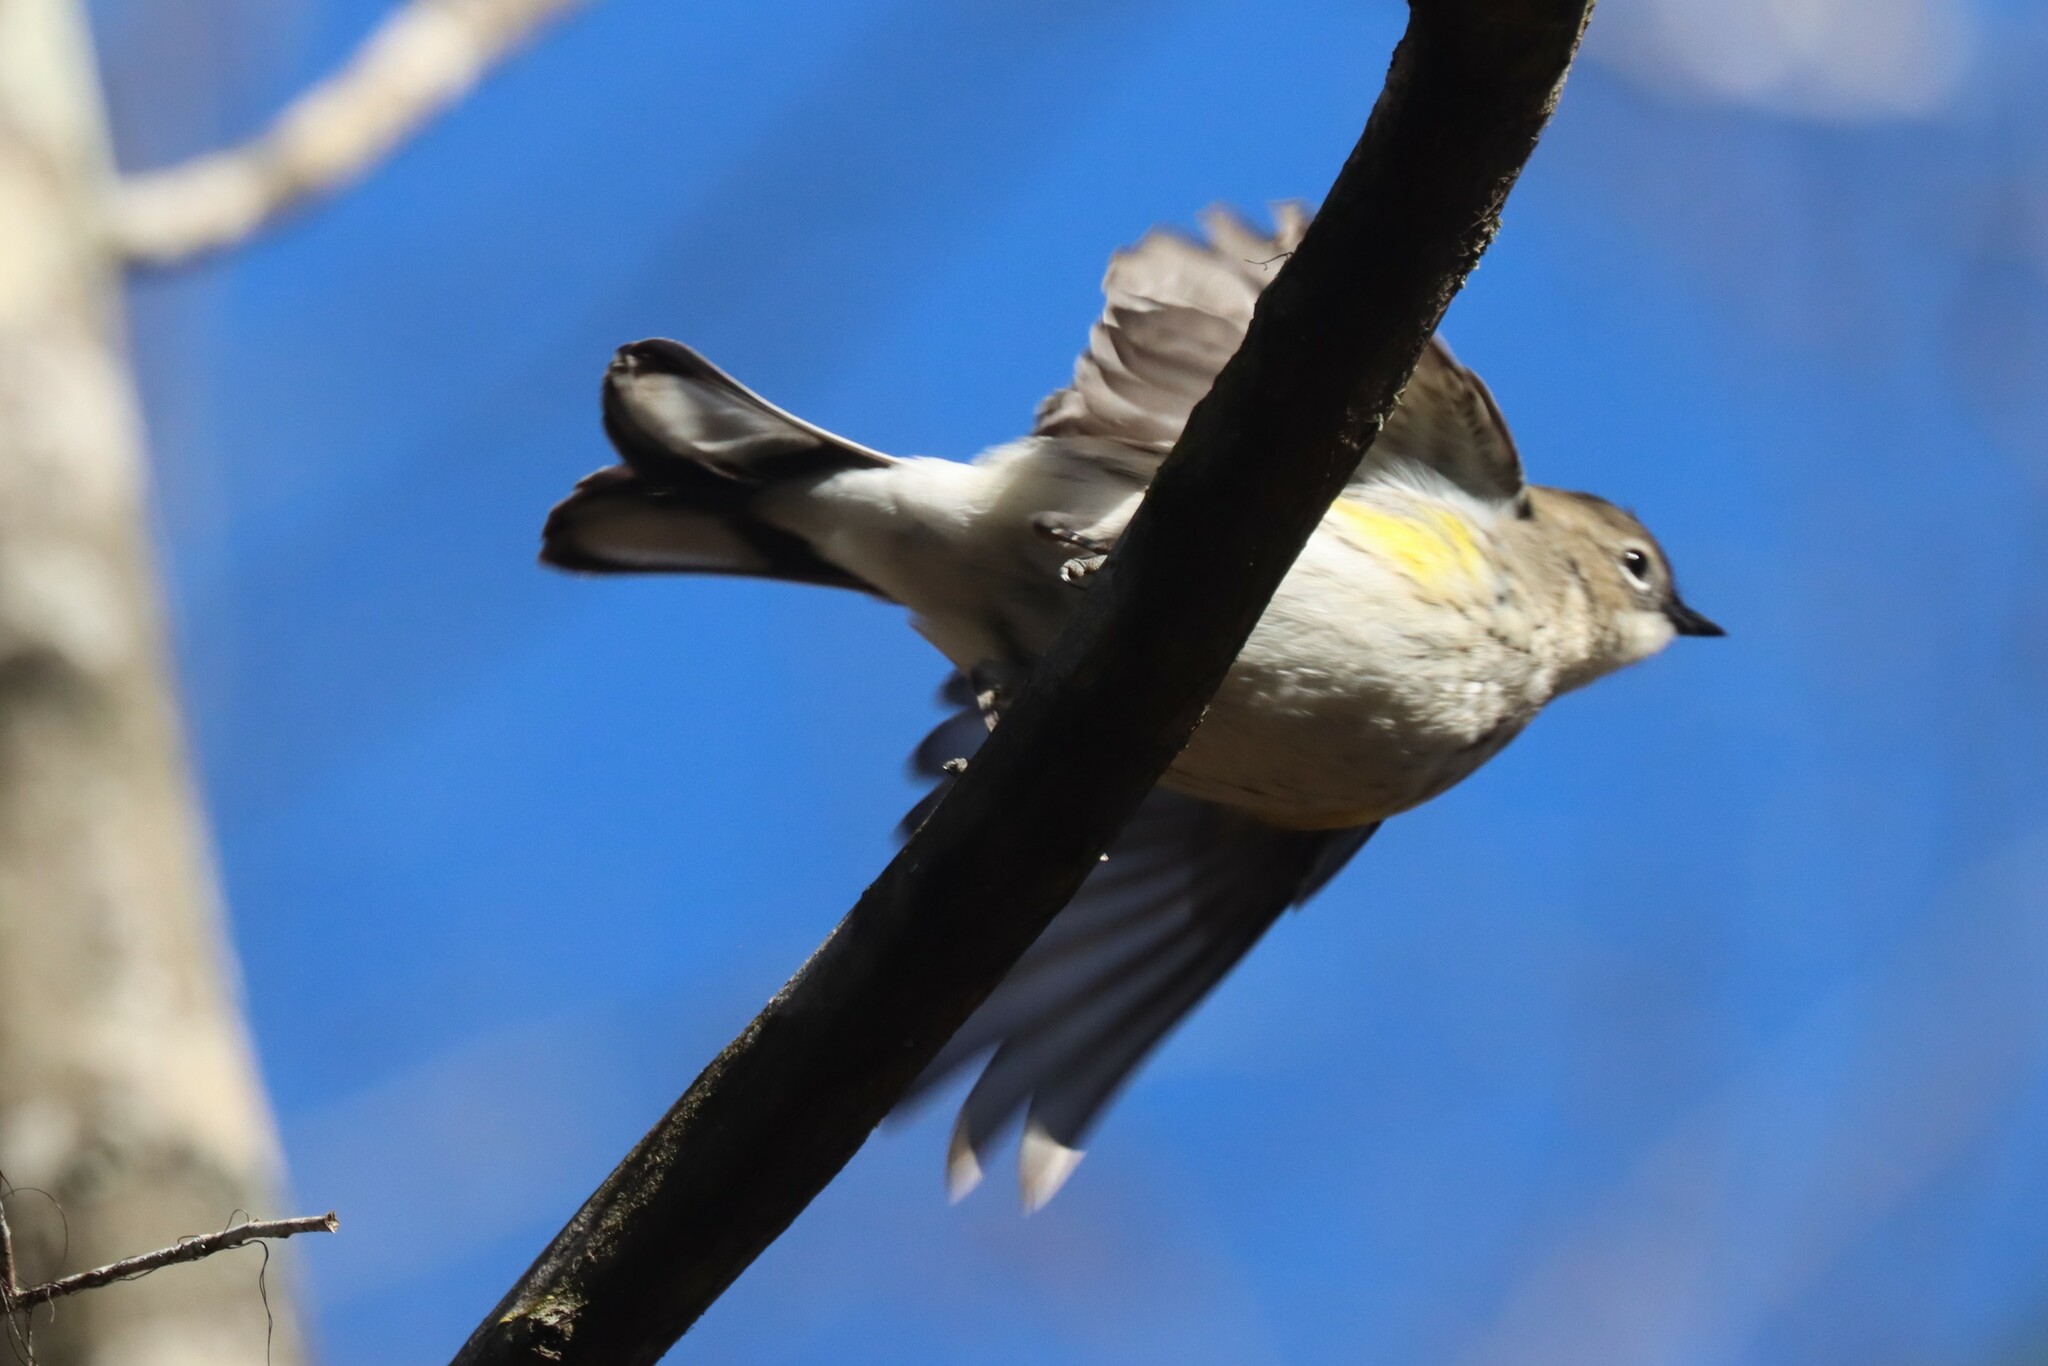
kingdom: Animalia
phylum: Chordata
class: Aves
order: Passeriformes
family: Parulidae
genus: Setophaga
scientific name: Setophaga coronata
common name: Myrtle warbler
